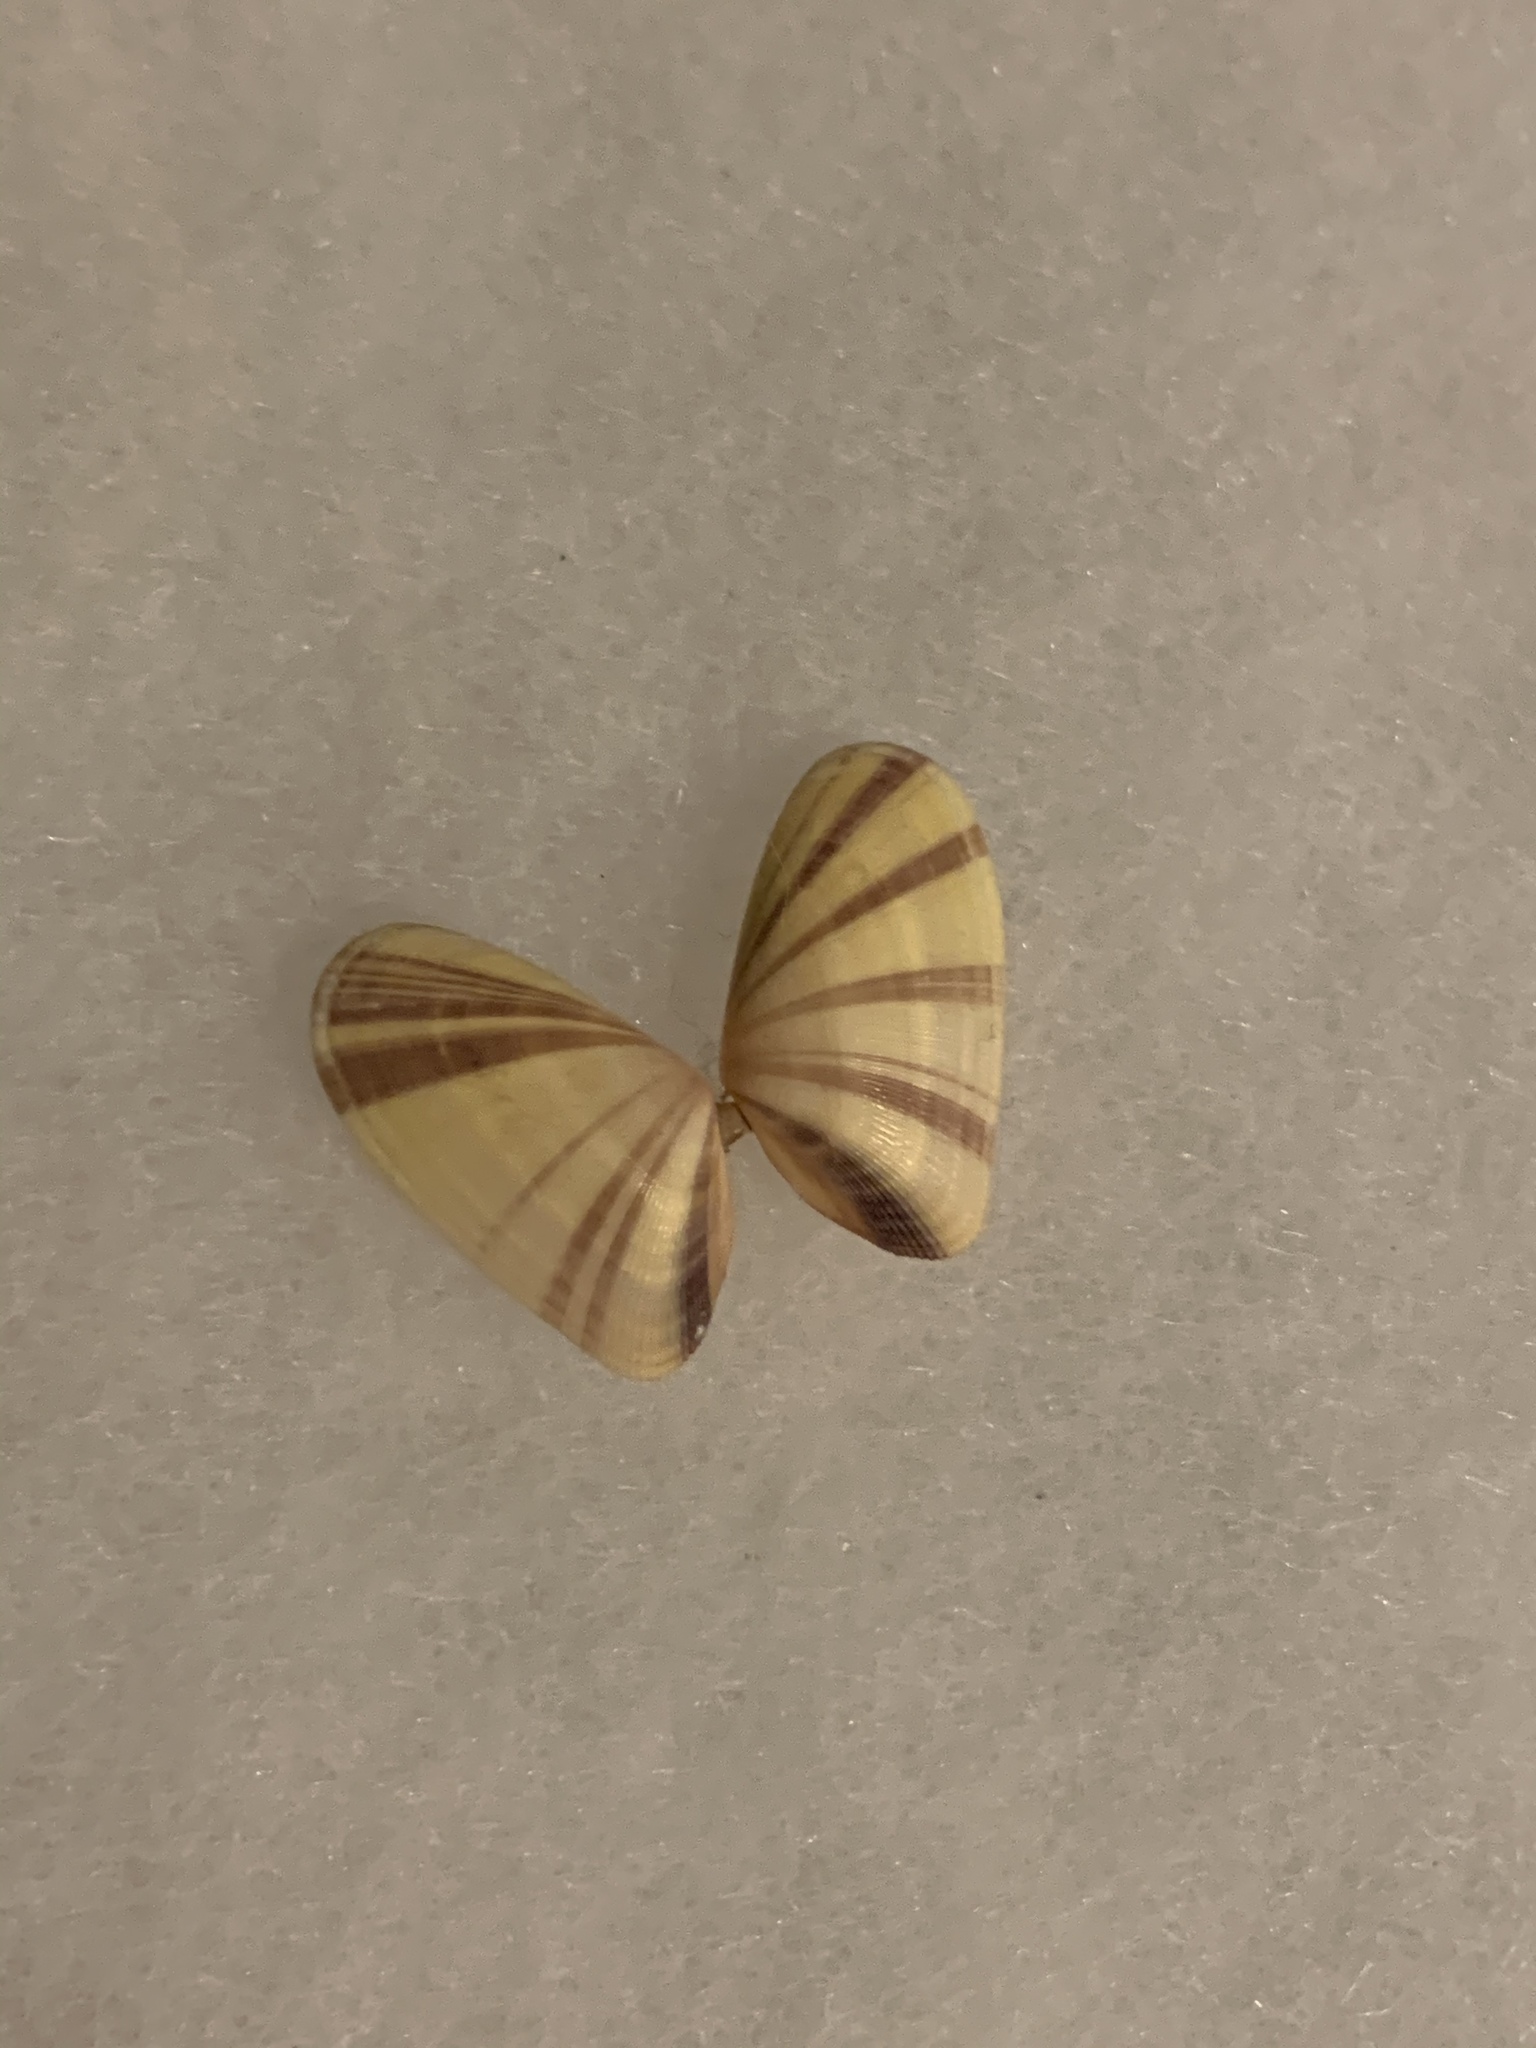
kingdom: Animalia
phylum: Mollusca
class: Bivalvia
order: Cardiida
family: Donacidae
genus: Donax
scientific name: Donax variabilis
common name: Butterfly shell
